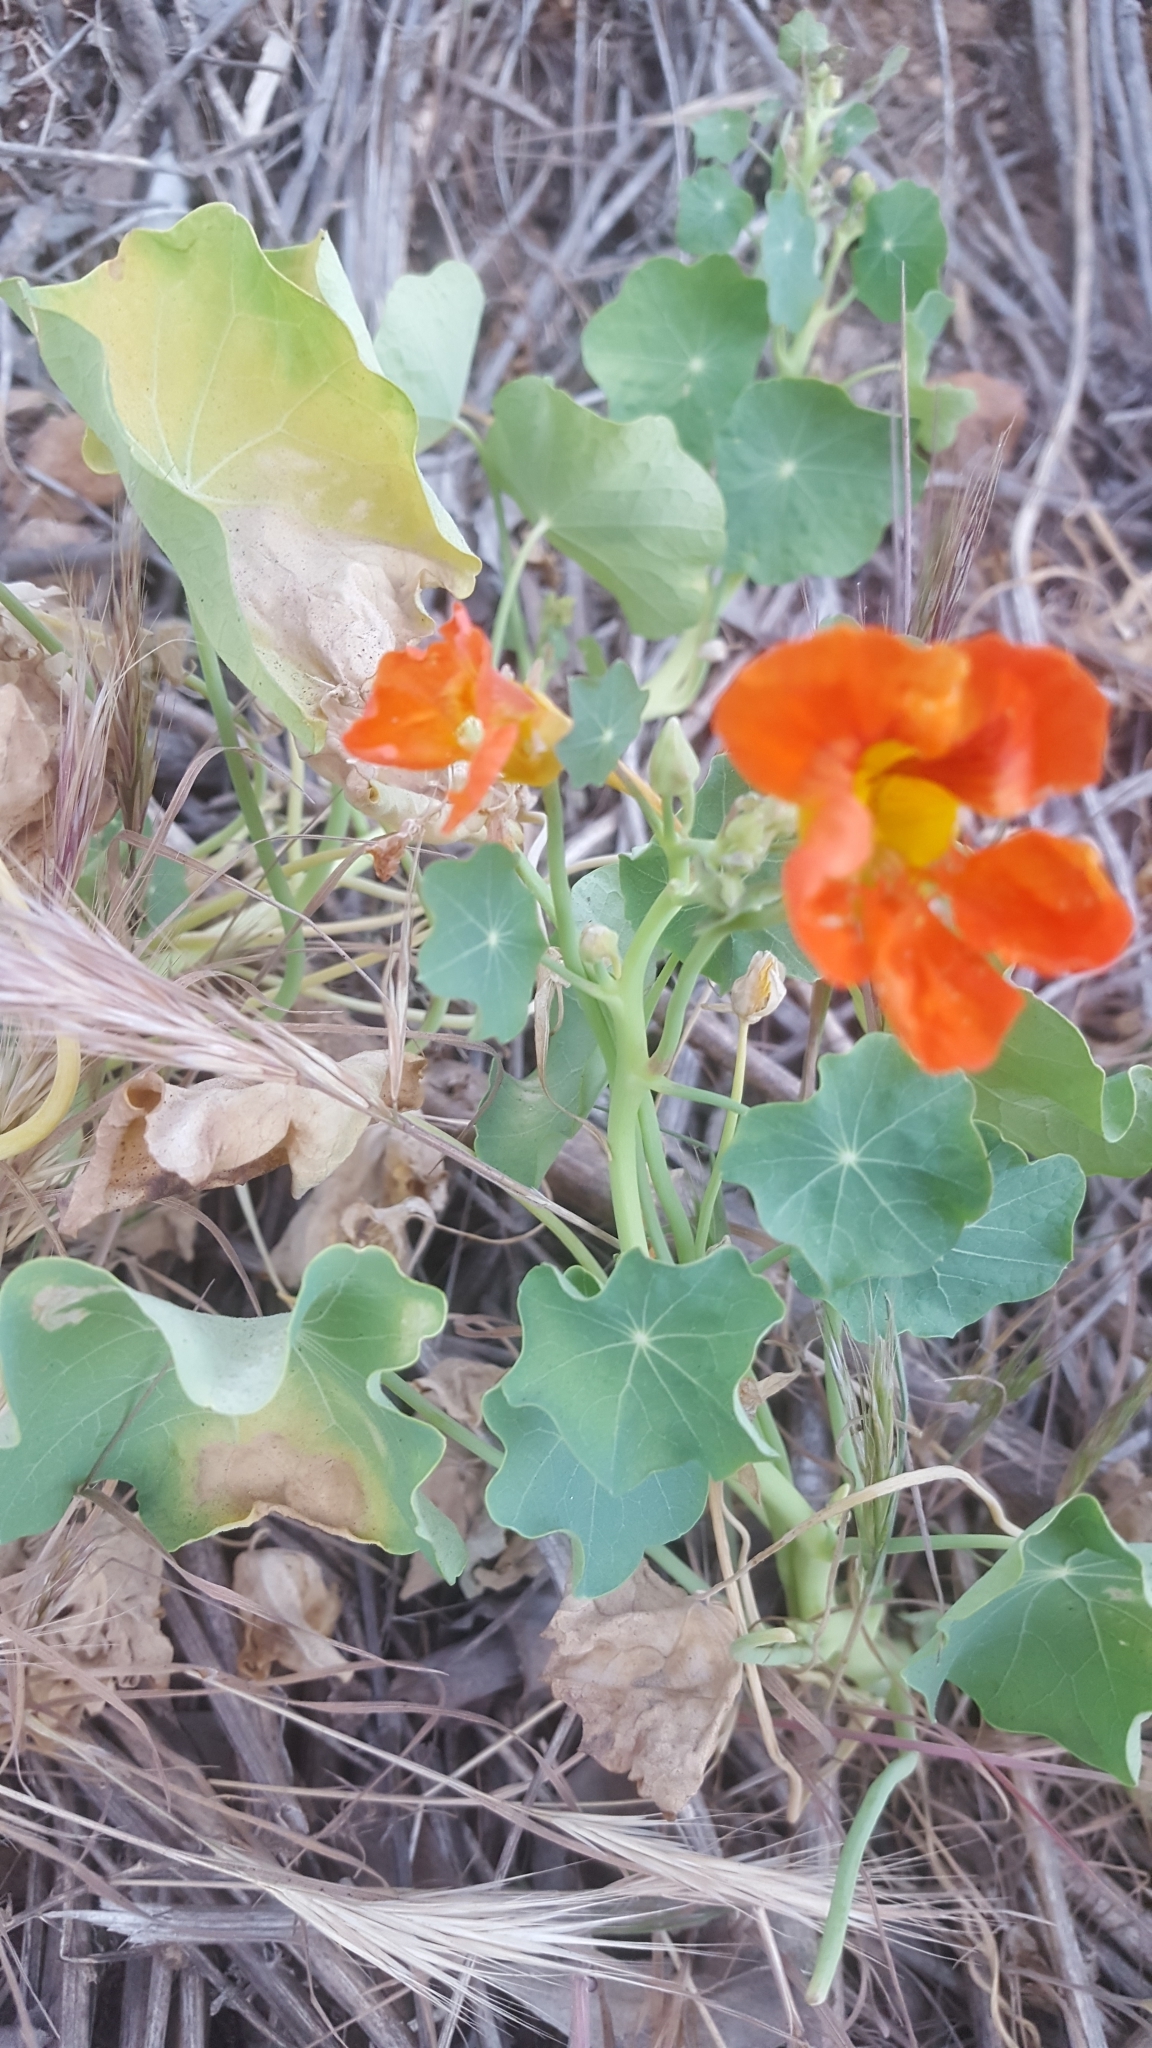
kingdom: Plantae
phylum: Tracheophyta
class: Magnoliopsida
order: Brassicales
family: Tropaeolaceae
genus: Tropaeolum
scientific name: Tropaeolum majus
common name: Nasturtium
